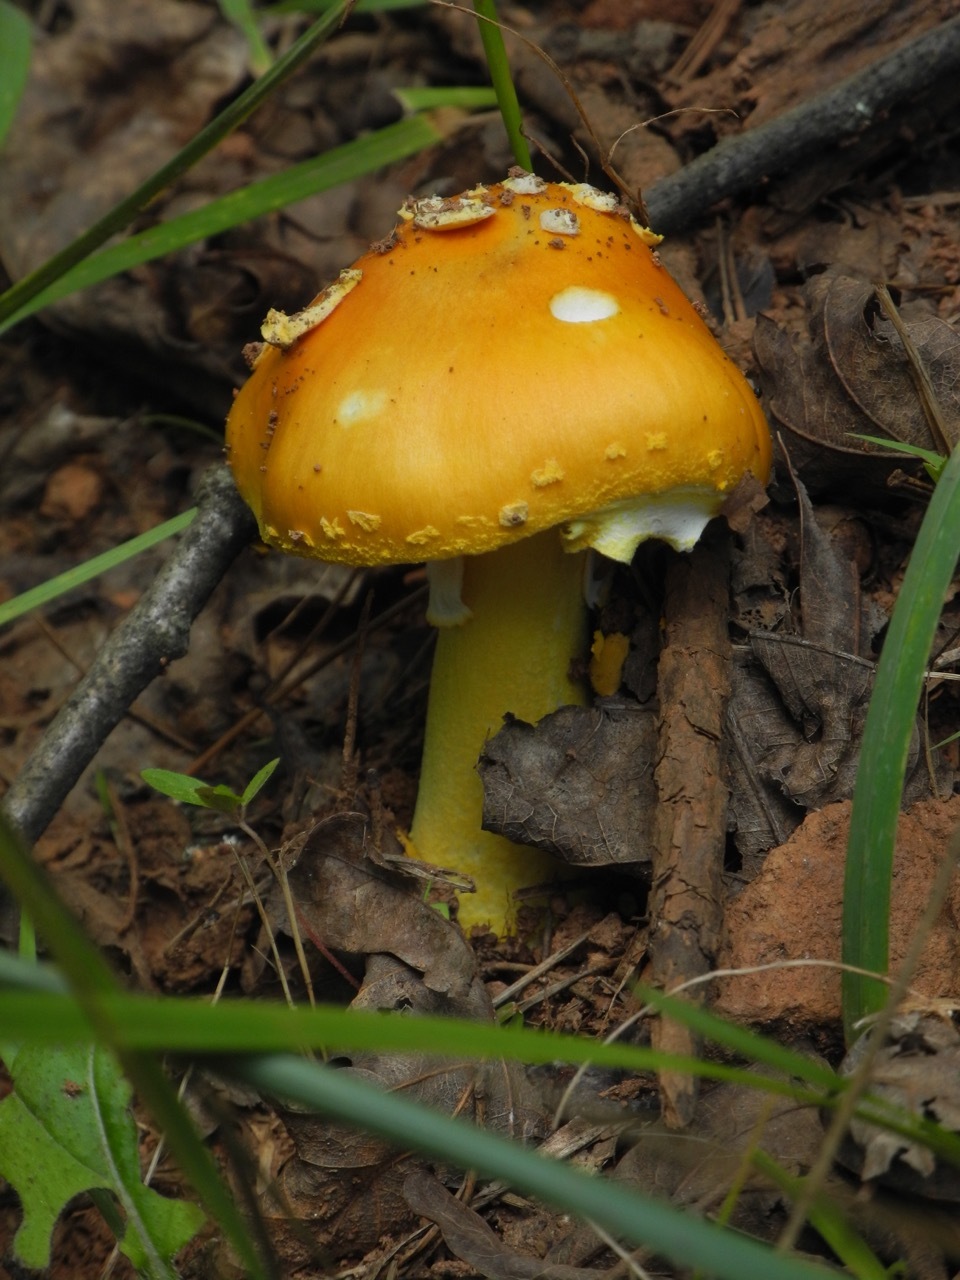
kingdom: Fungi
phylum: Basidiomycota
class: Agaricomycetes
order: Agaricales
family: Amanitaceae
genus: Amanita
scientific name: Amanita flavoconia
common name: Yellow patches
